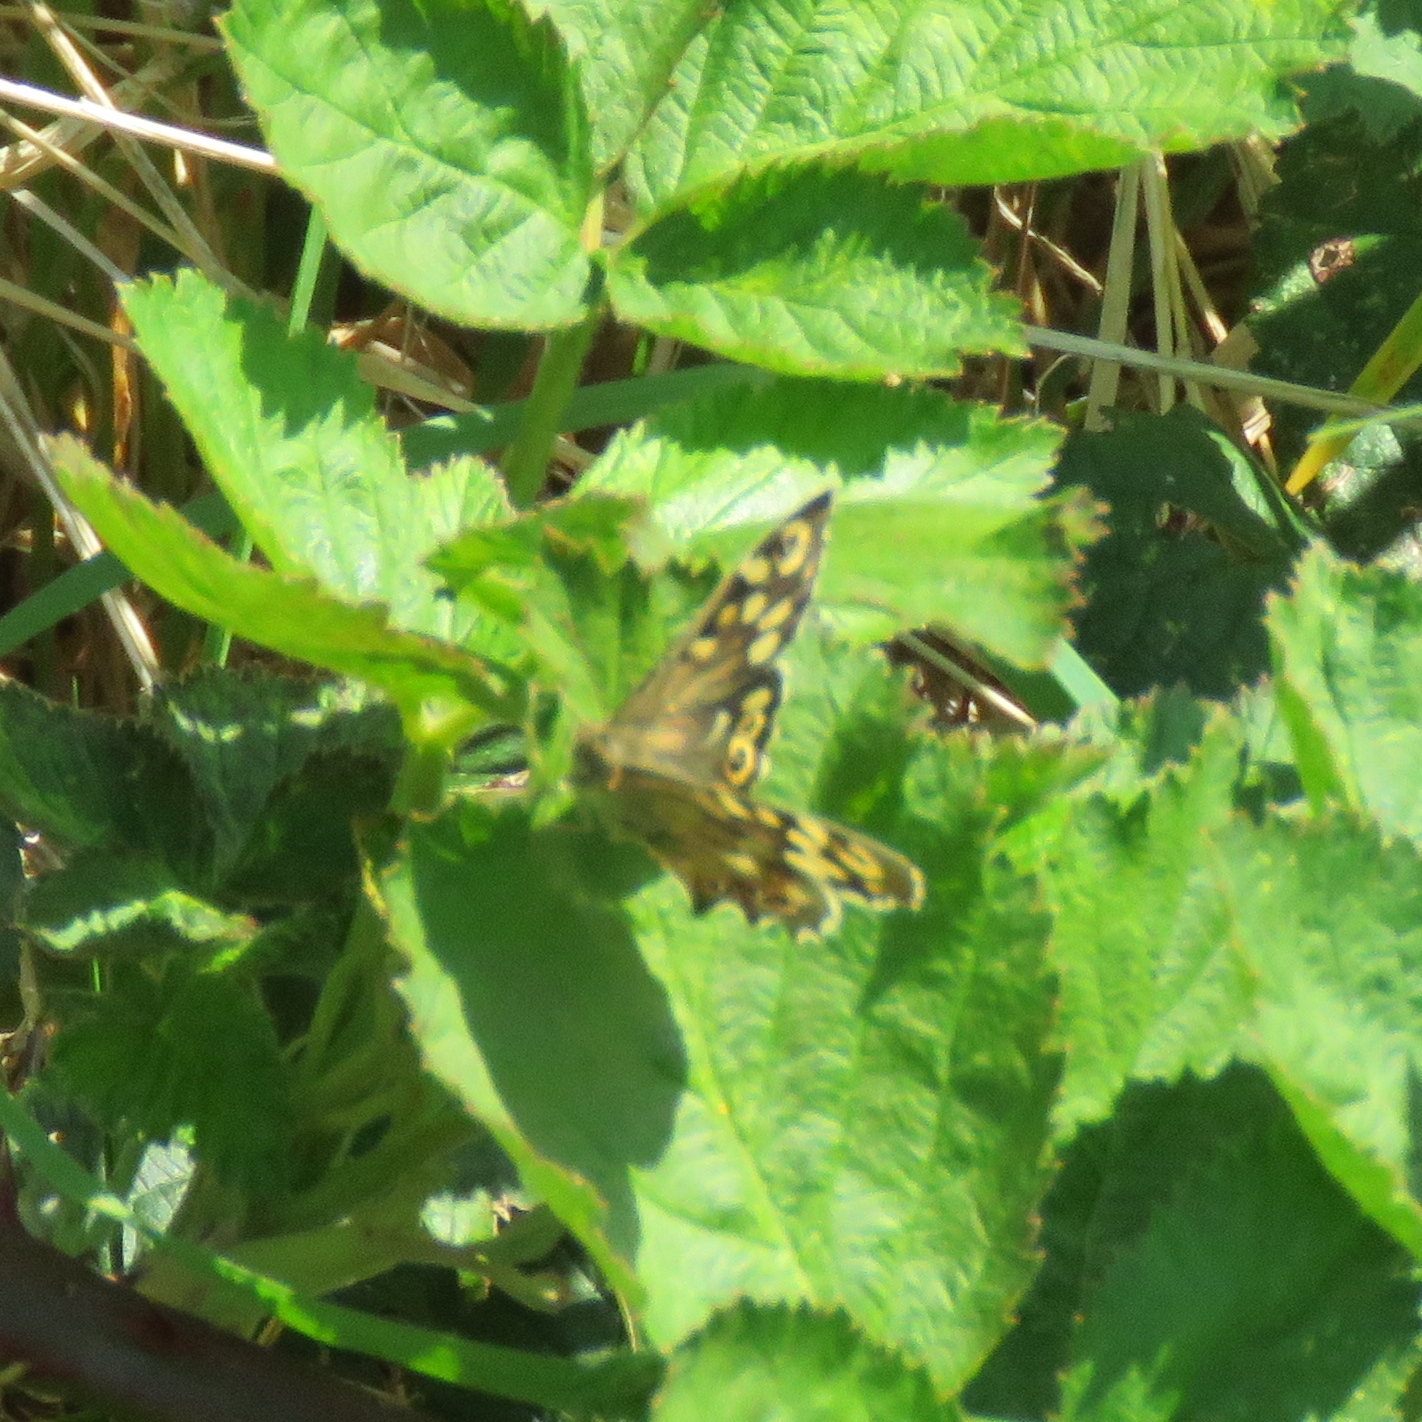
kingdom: Animalia
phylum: Arthropoda
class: Insecta
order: Lepidoptera
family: Nymphalidae
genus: Pararge
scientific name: Pararge aegeria
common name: Speckled wood
